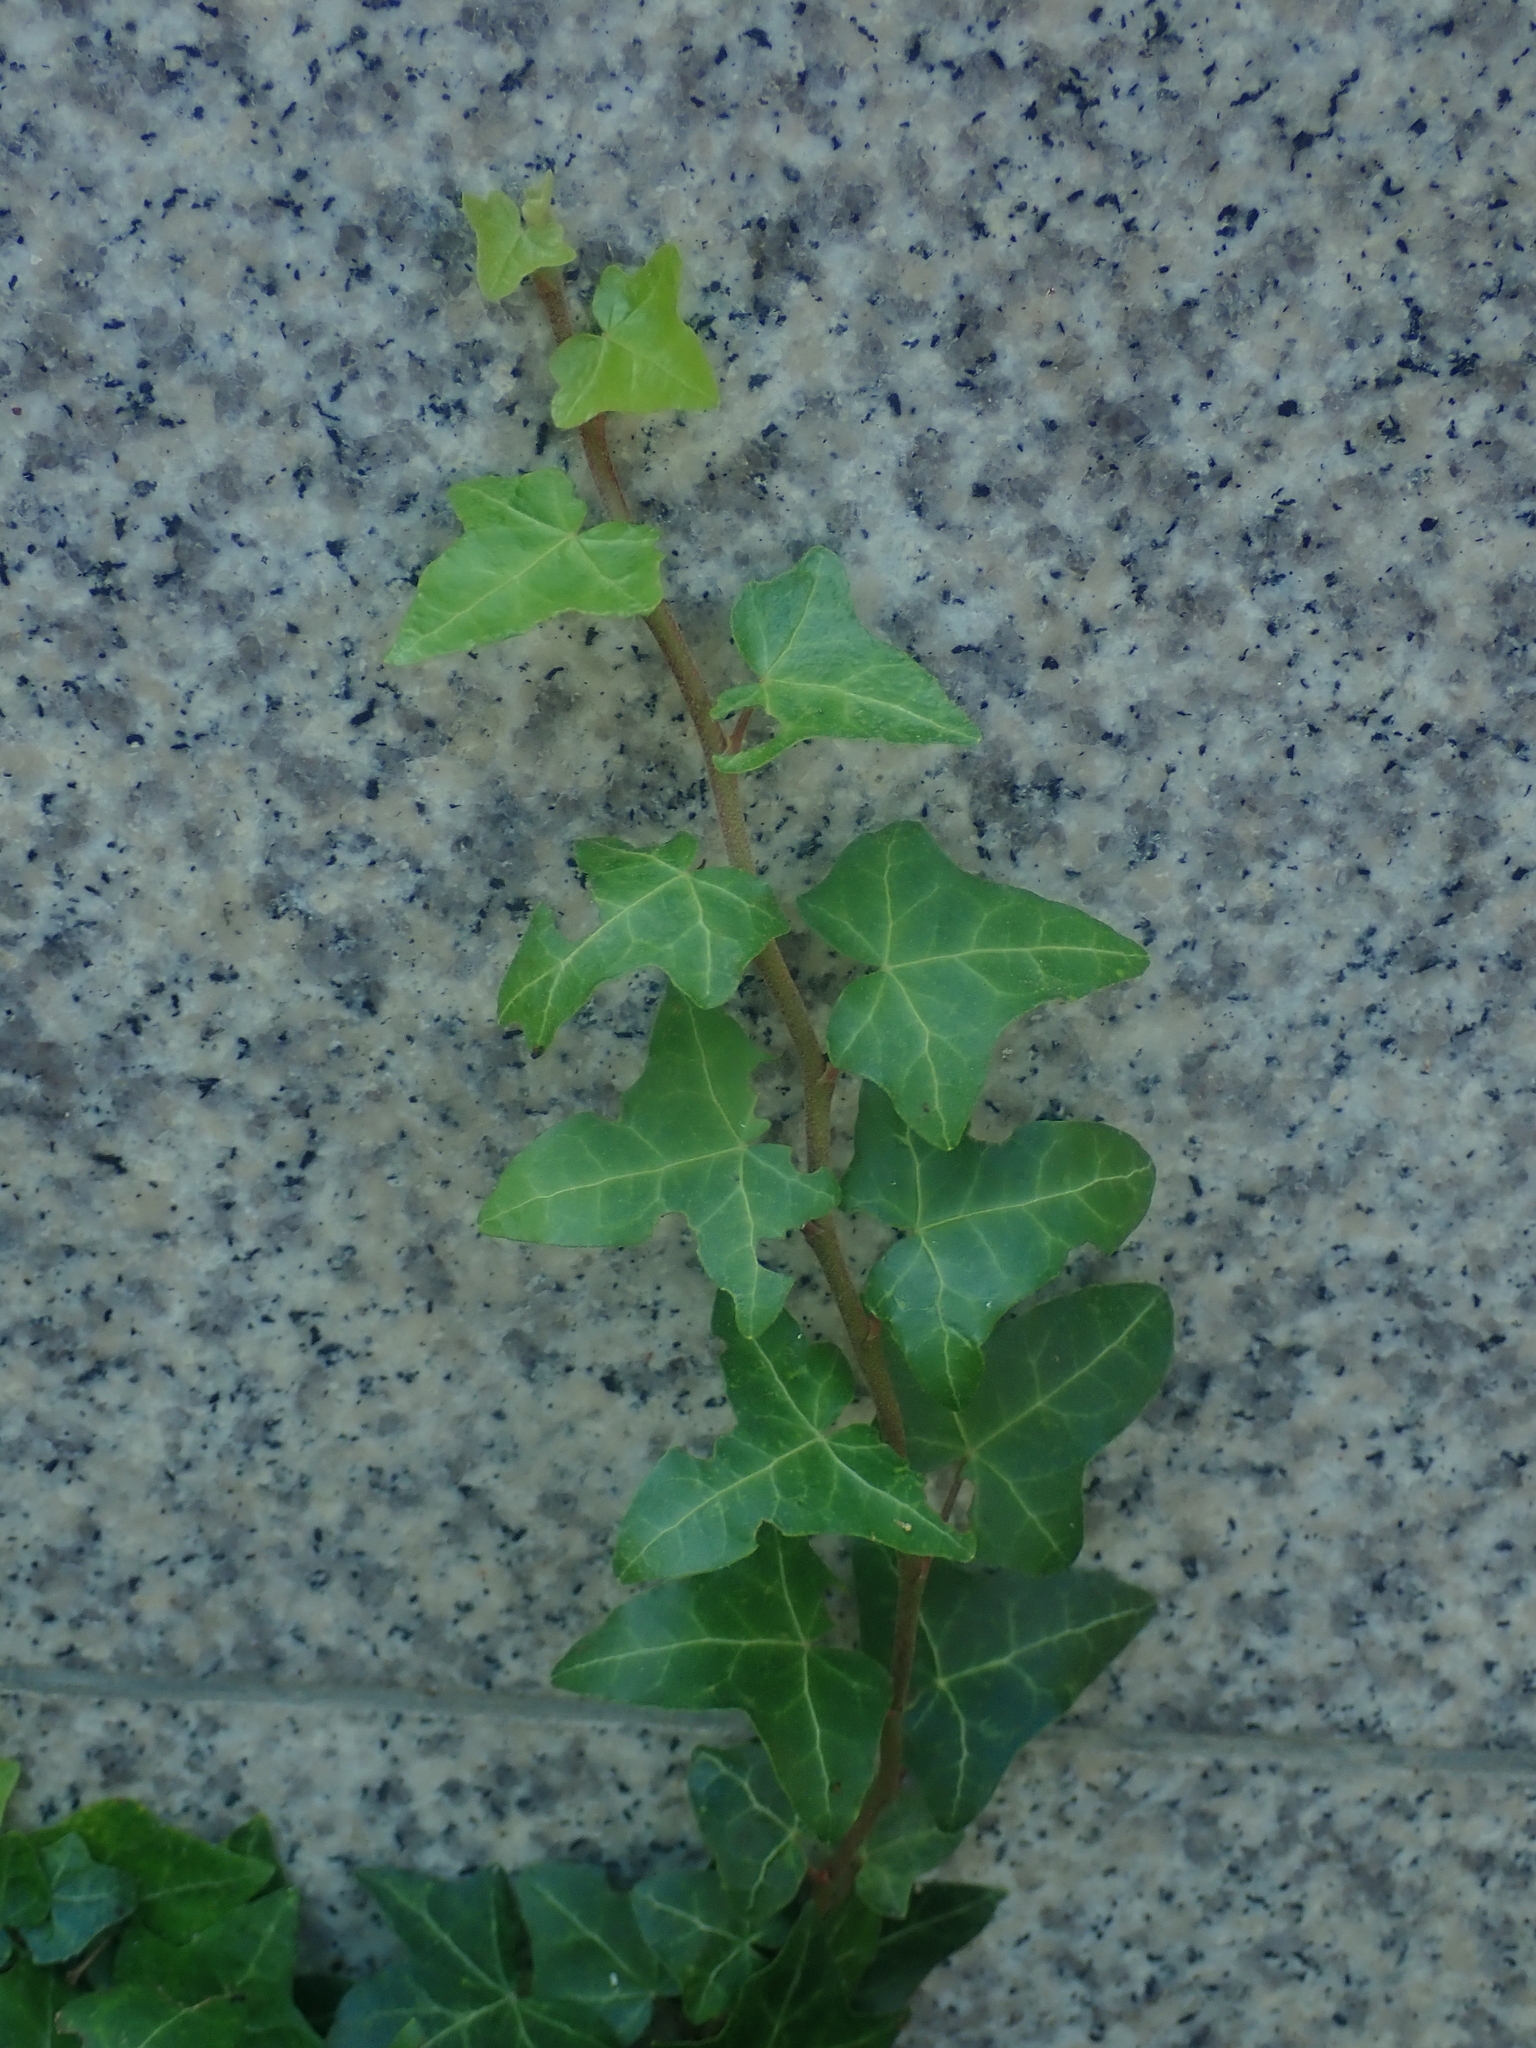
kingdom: Plantae
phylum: Tracheophyta
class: Magnoliopsida
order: Apiales
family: Araliaceae
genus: Hedera
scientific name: Hedera helix
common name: Ivy
